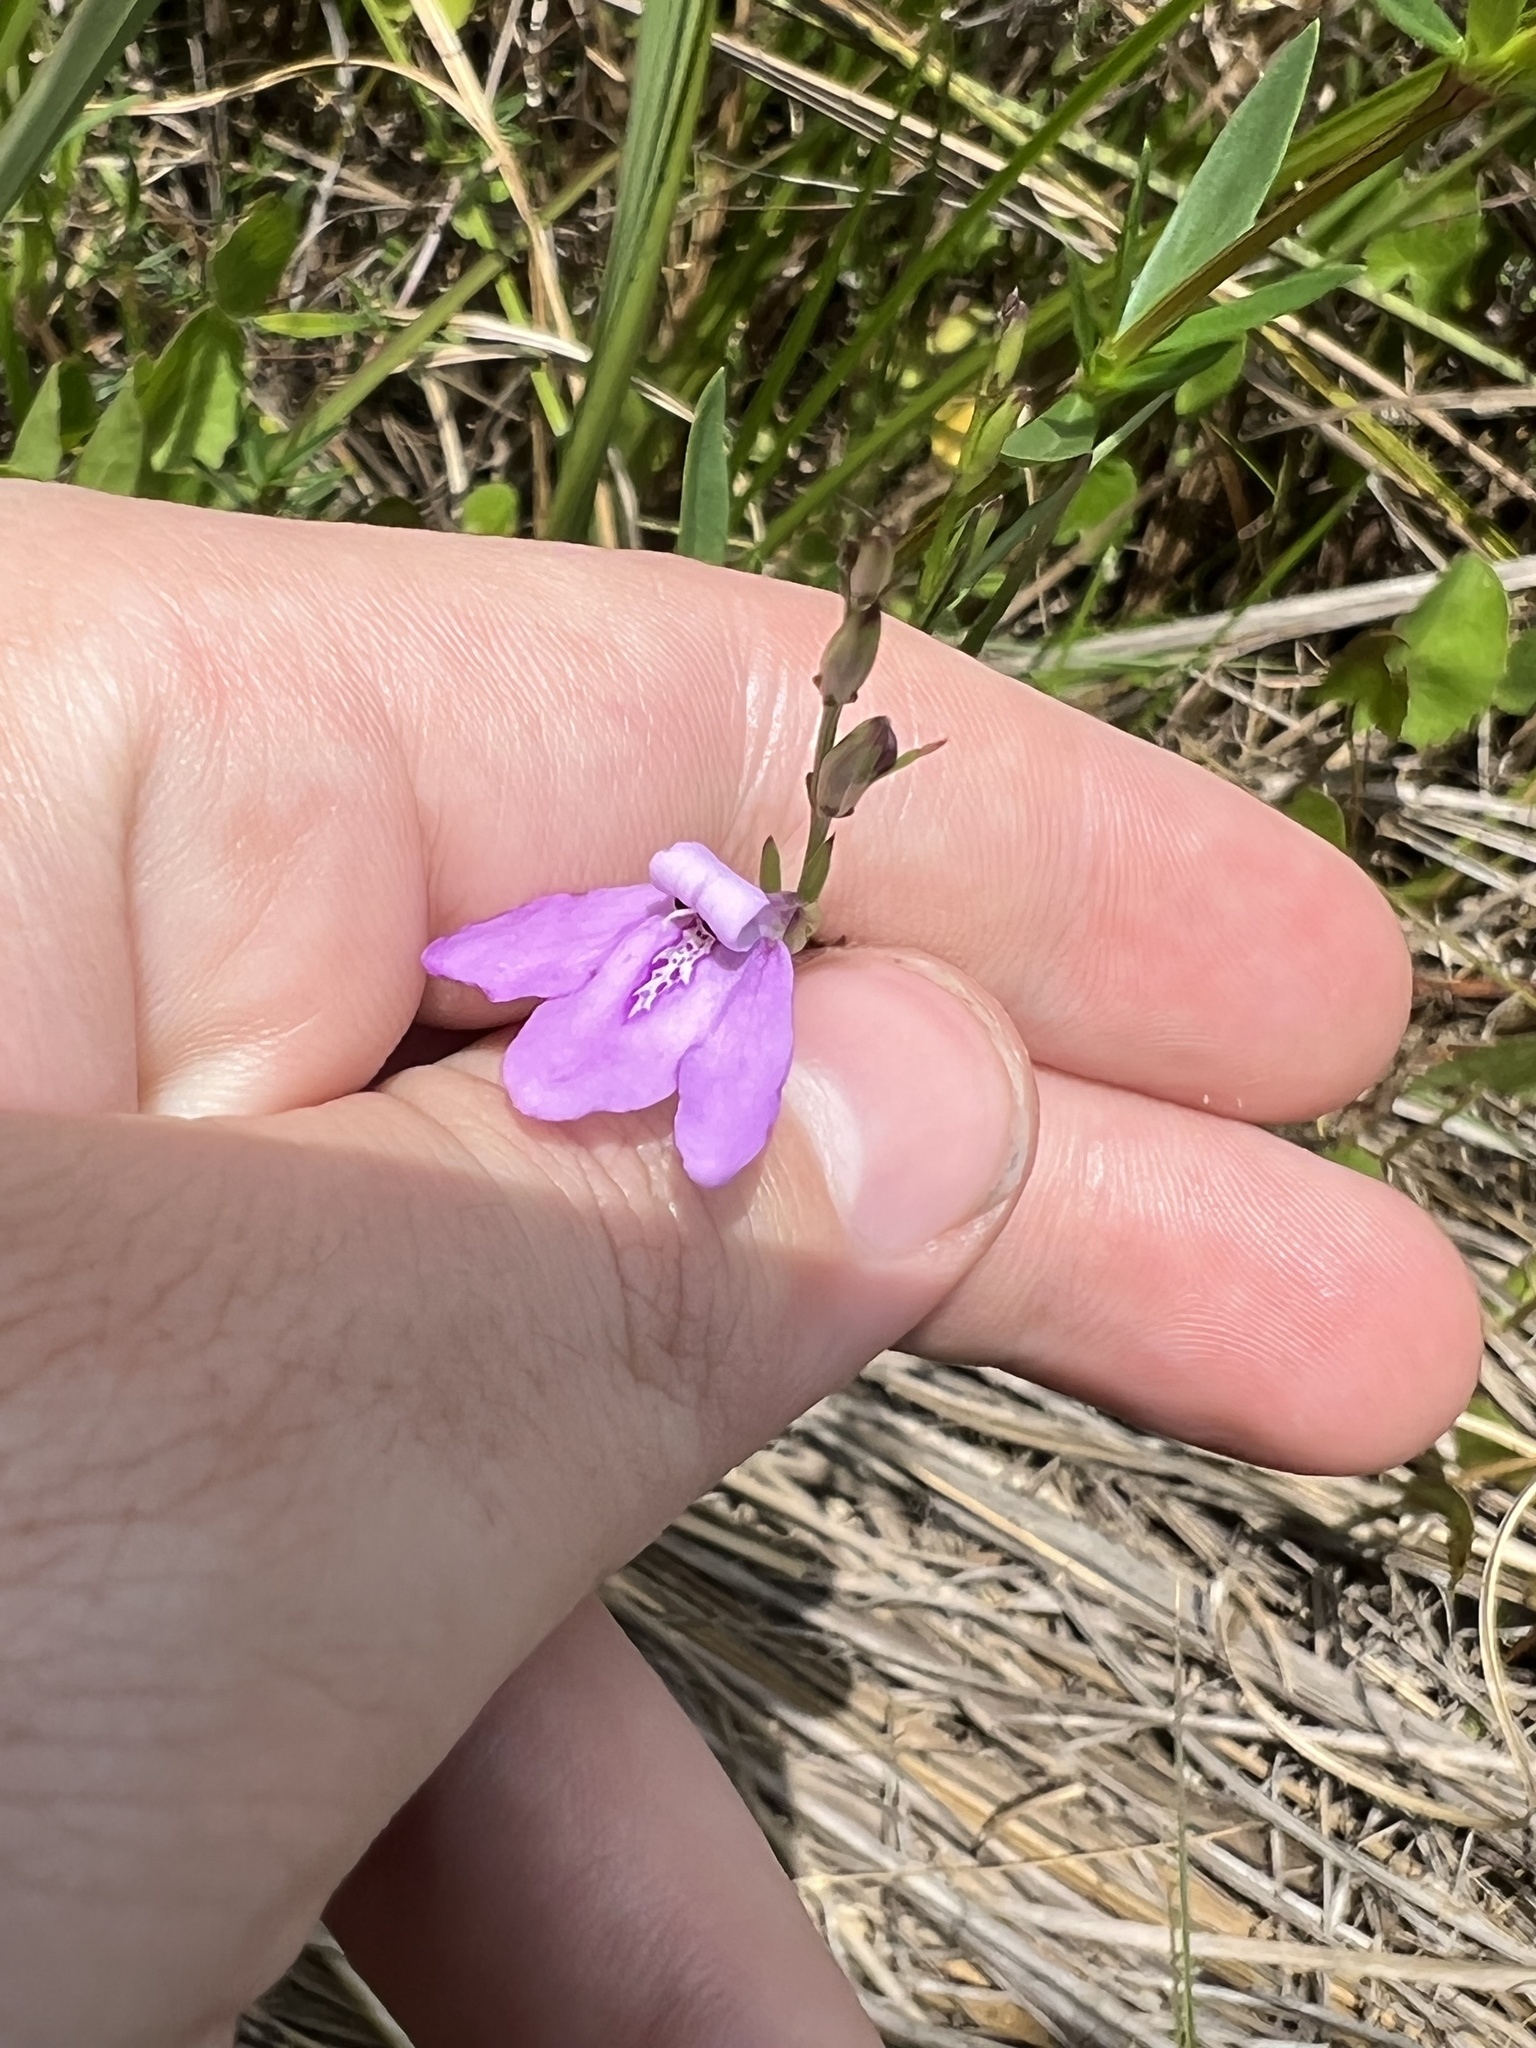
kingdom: Plantae
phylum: Tracheophyta
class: Magnoliopsida
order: Lamiales
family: Acanthaceae
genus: Dianthera
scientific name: Dianthera angusta
